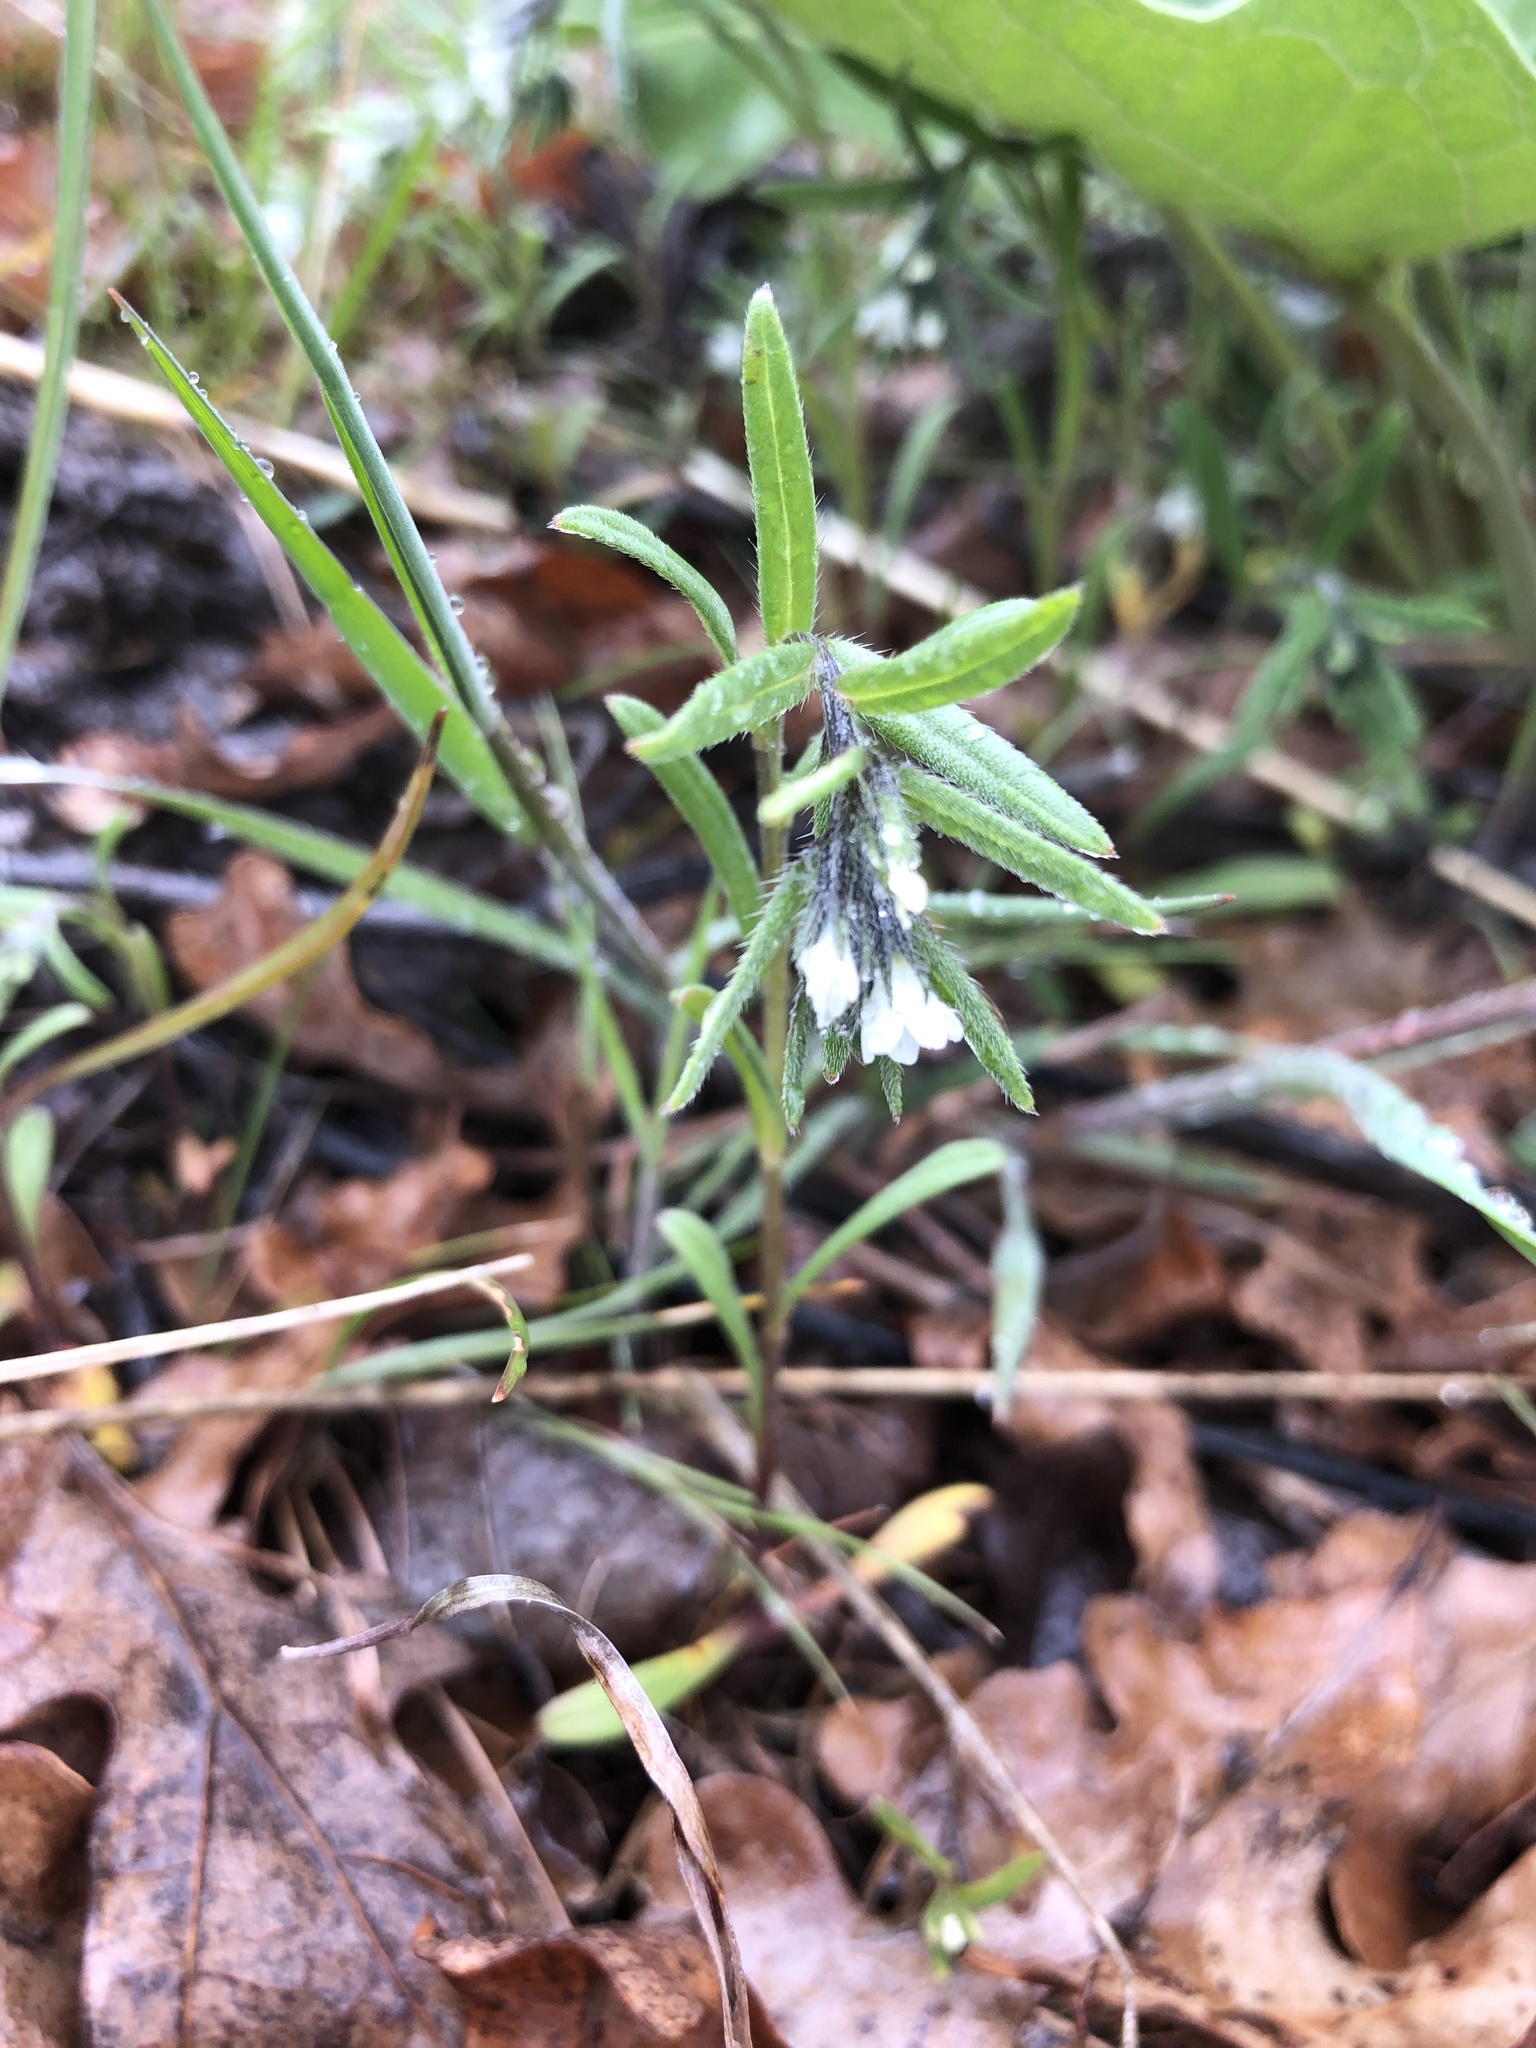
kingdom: Plantae
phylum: Tracheophyta
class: Magnoliopsida
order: Boraginales
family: Boraginaceae
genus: Buglossoides
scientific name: Buglossoides arvensis
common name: Corn gromwell
